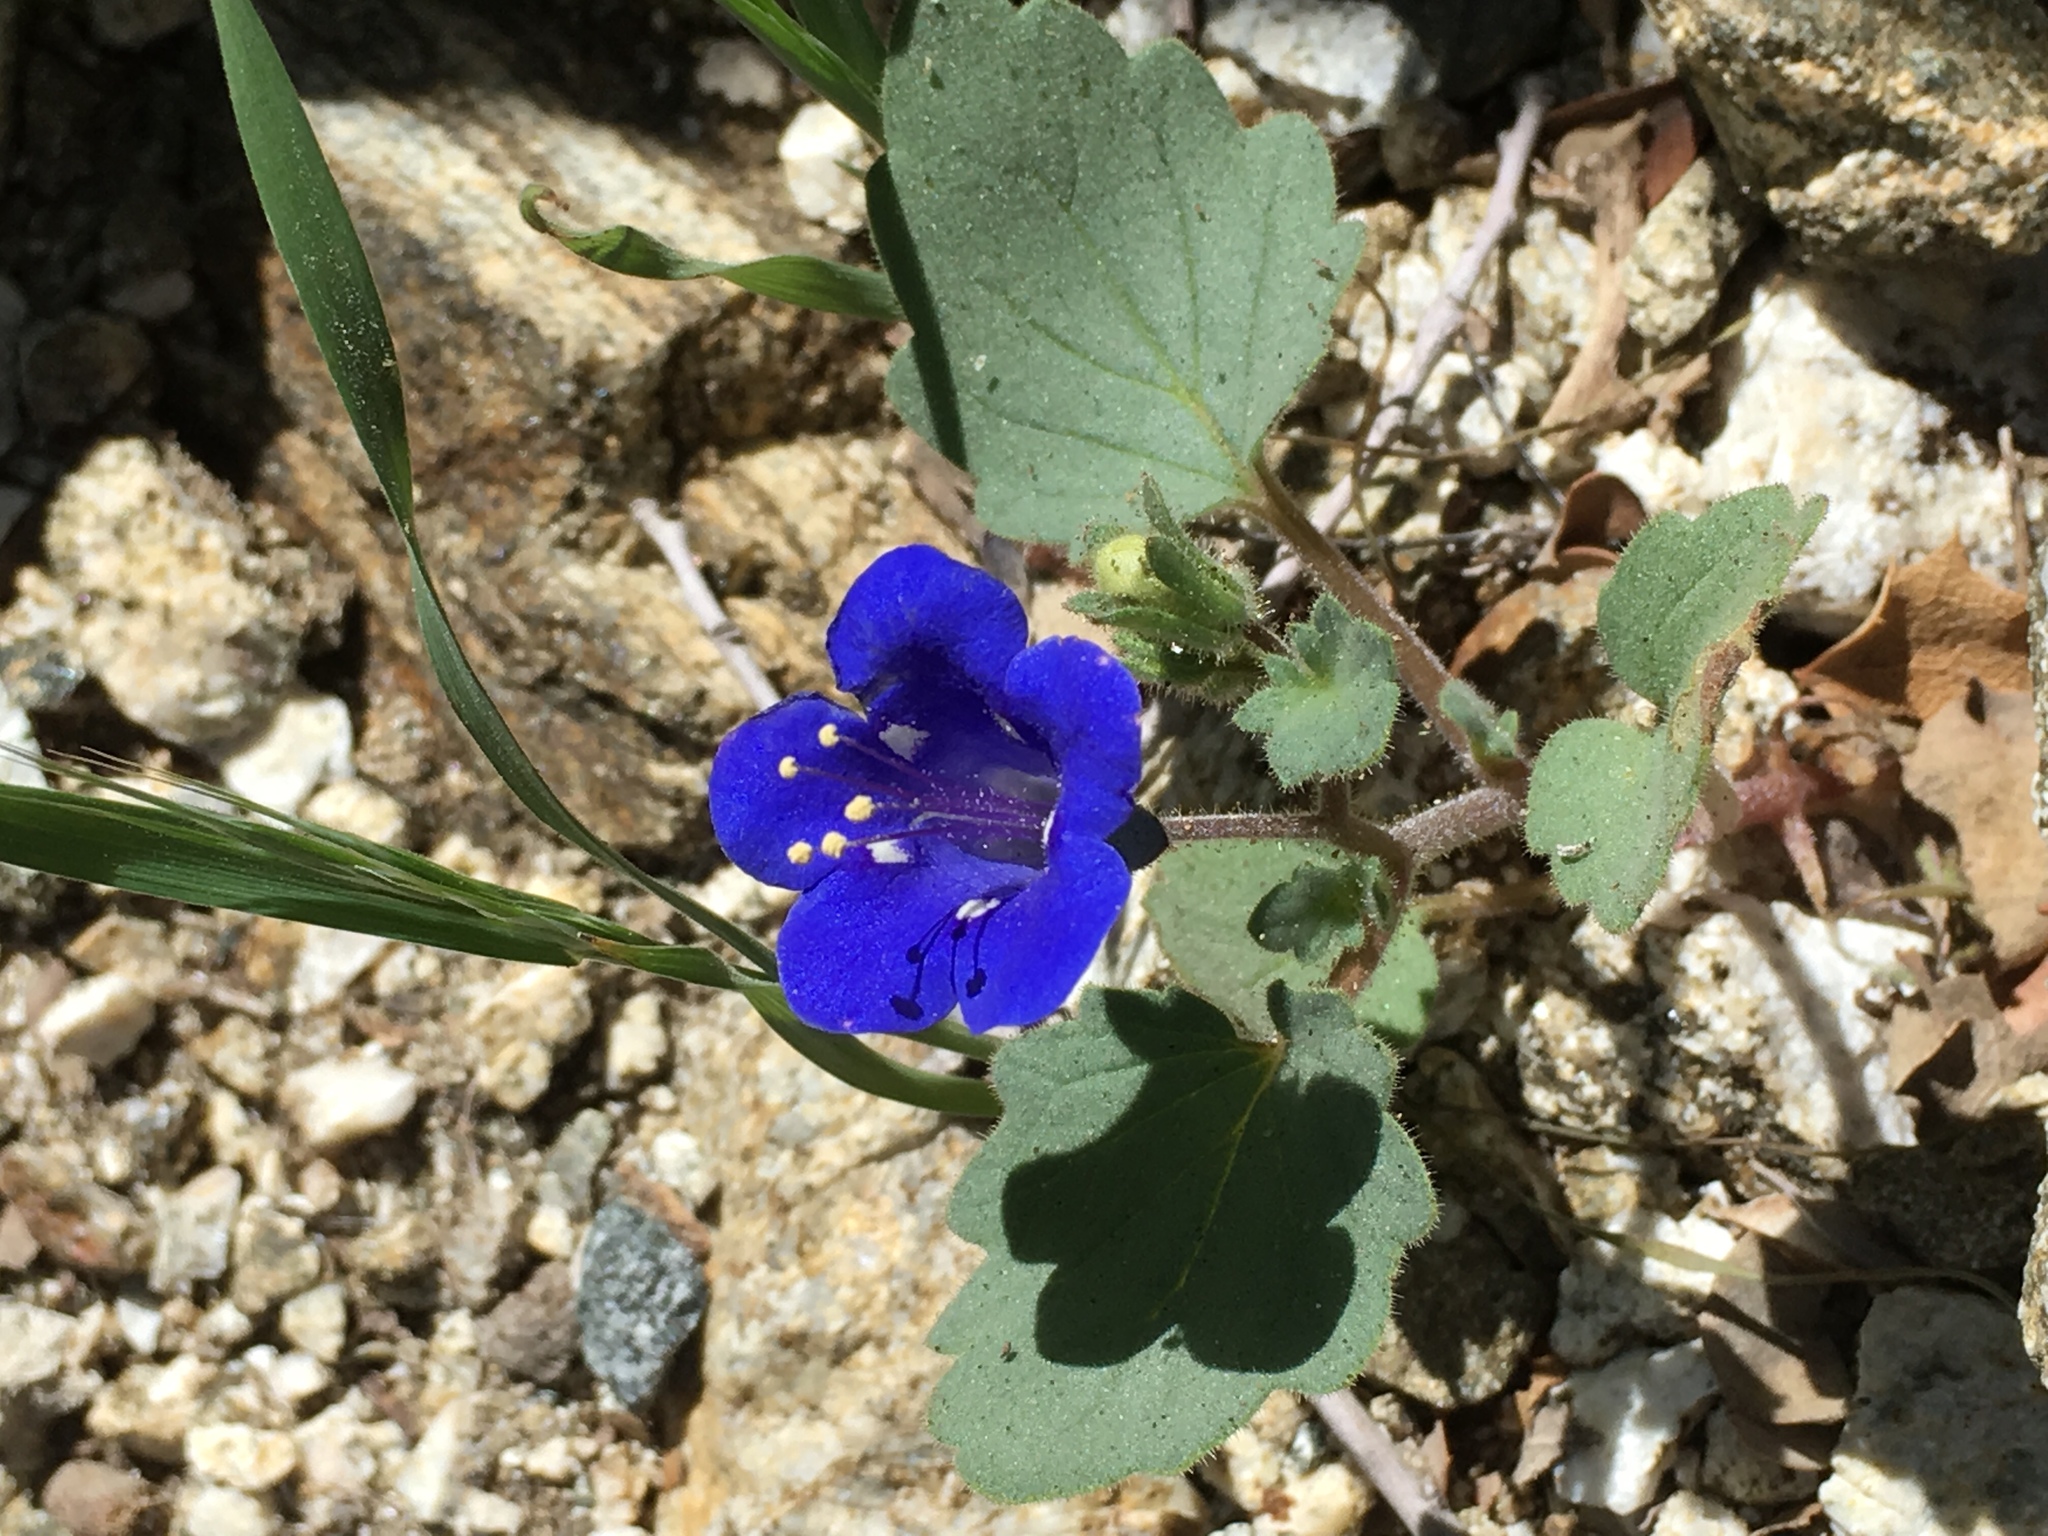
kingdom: Plantae
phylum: Tracheophyta
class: Magnoliopsida
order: Boraginales
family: Hydrophyllaceae
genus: Phacelia
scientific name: Phacelia campanularia
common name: California bluebell
